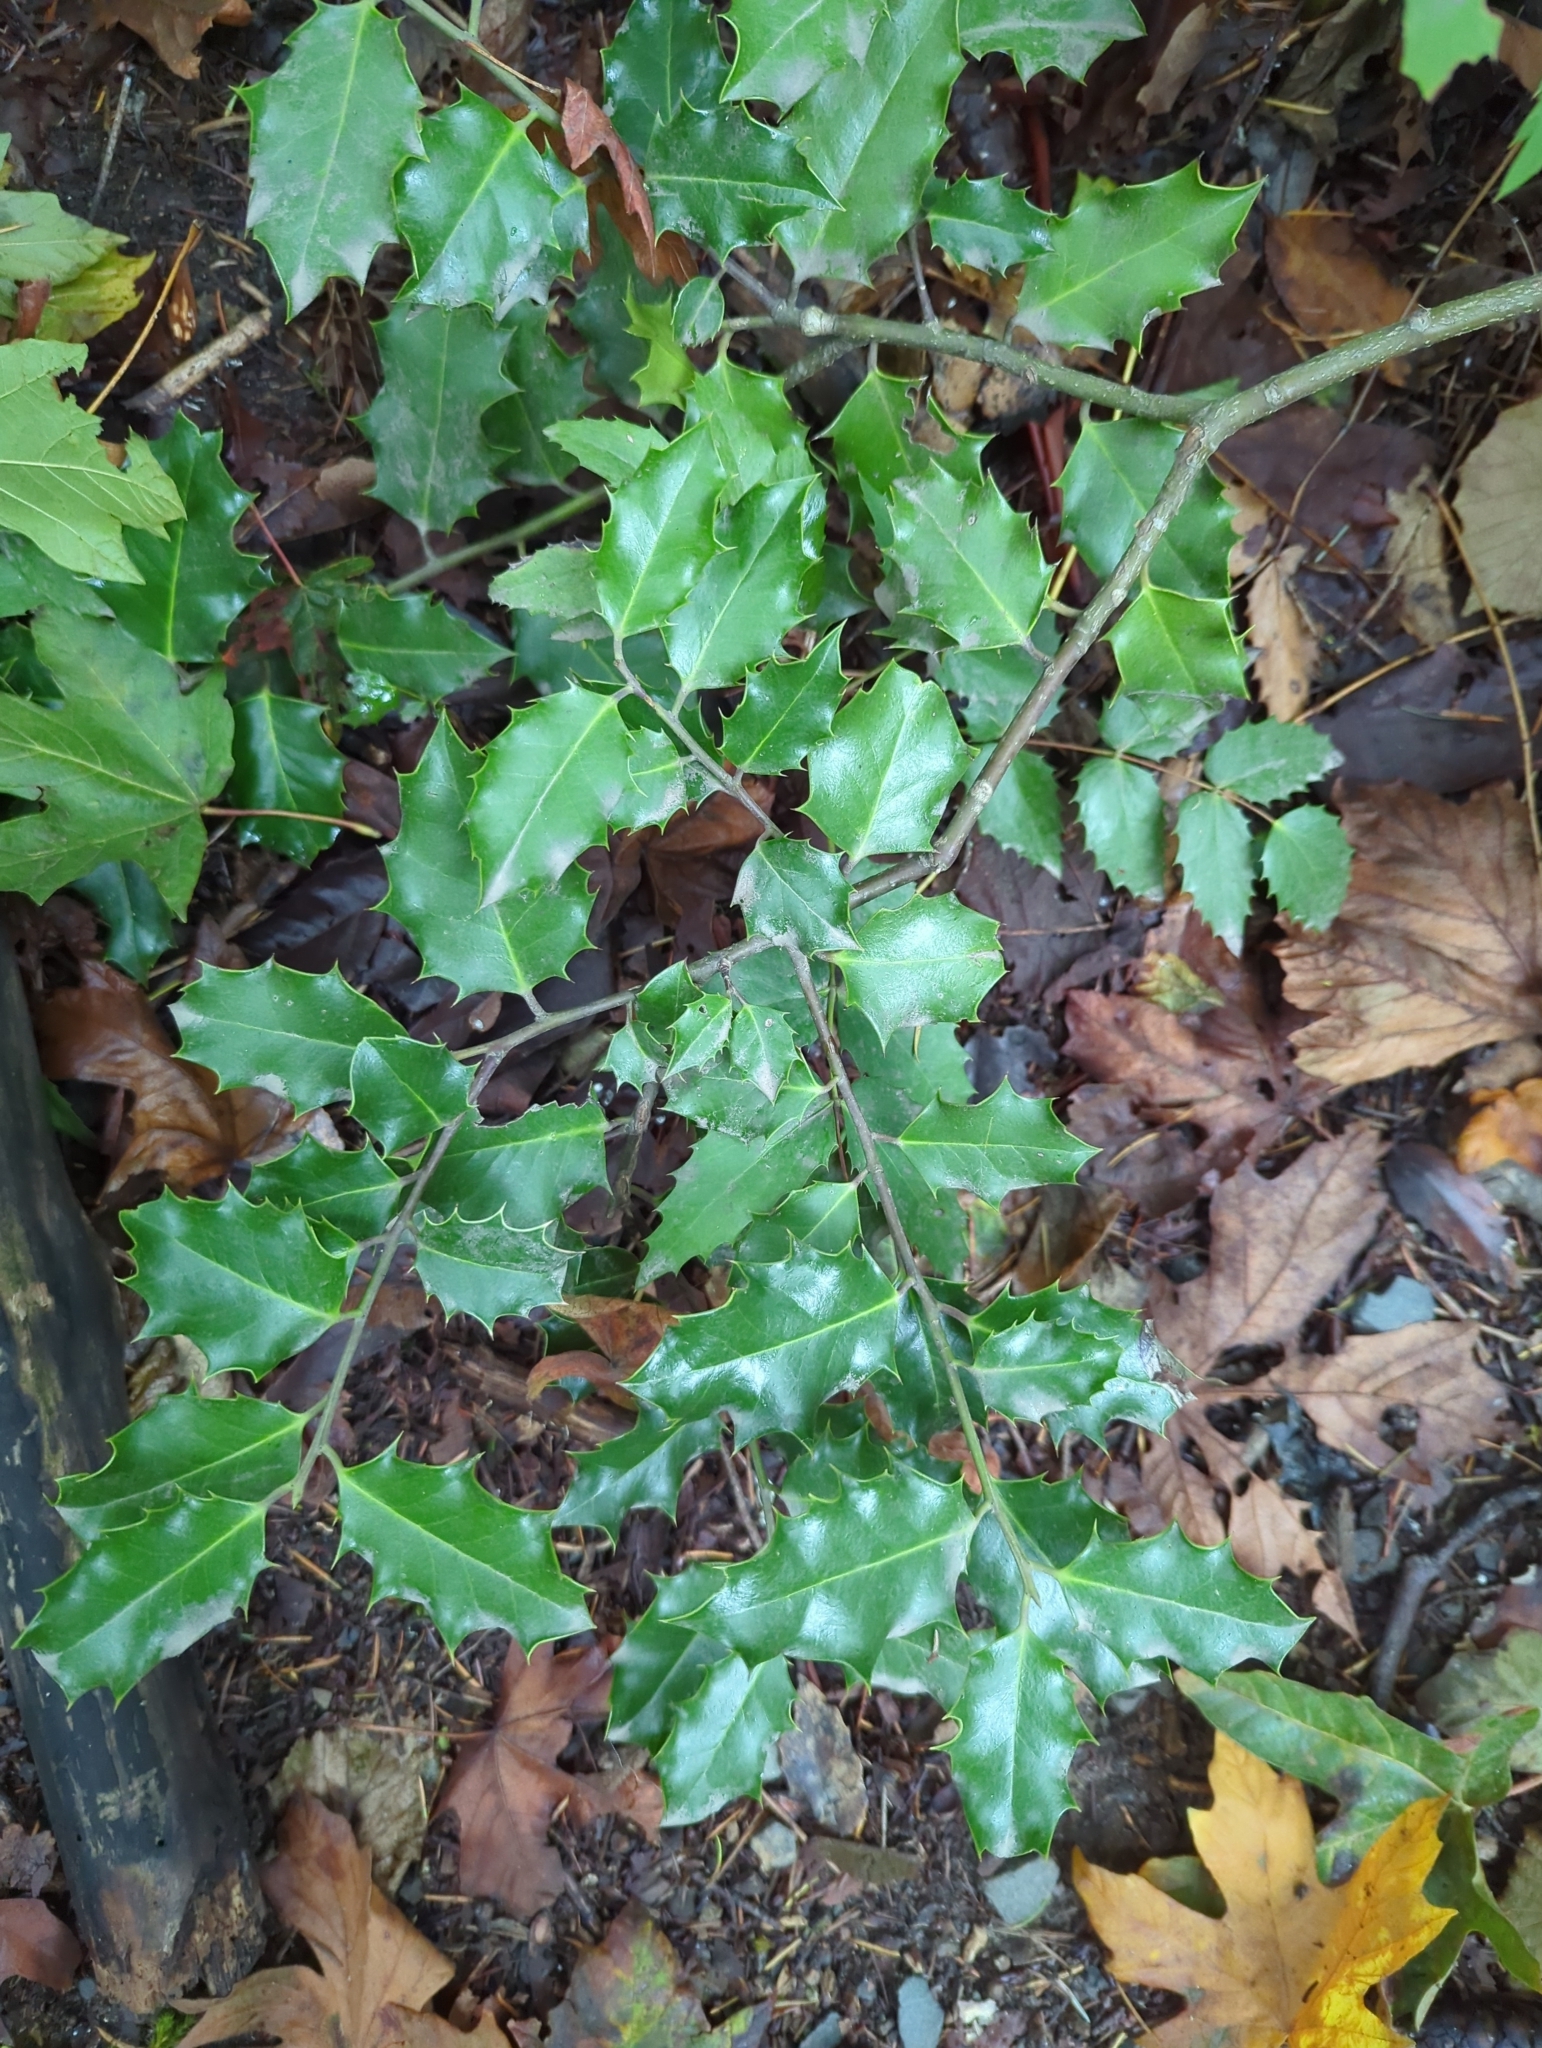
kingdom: Plantae
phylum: Tracheophyta
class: Magnoliopsida
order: Aquifoliales
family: Aquifoliaceae
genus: Ilex
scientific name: Ilex aquifolium
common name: English holly
